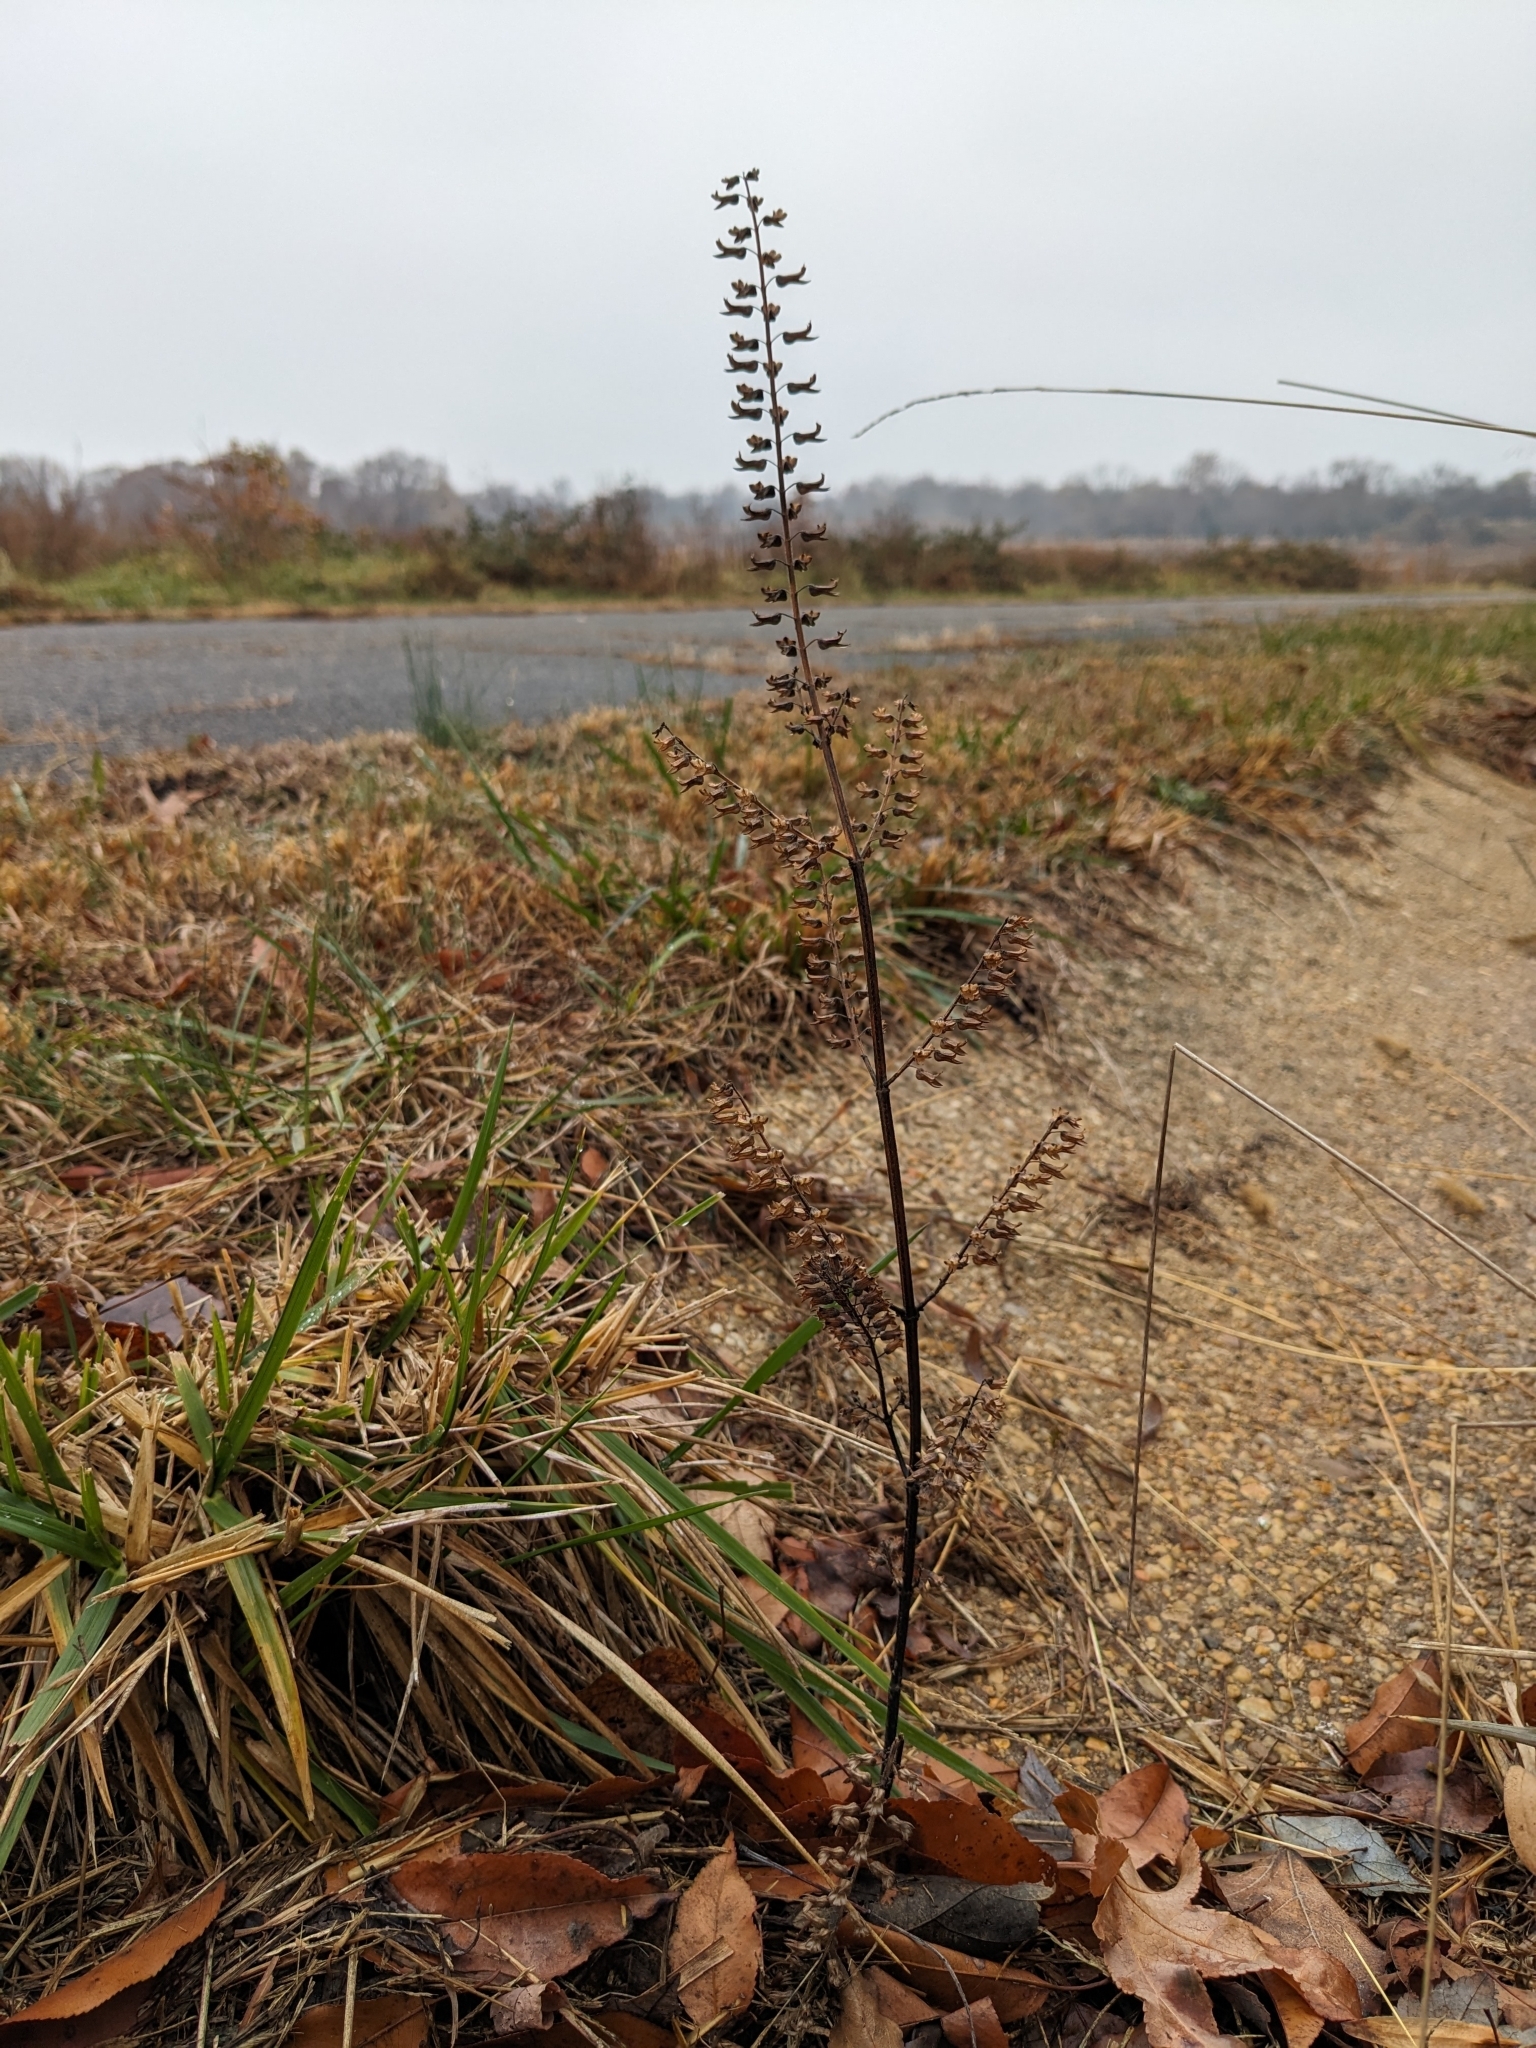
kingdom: Plantae
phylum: Tracheophyta
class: Magnoliopsida
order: Lamiales
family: Lamiaceae
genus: Perilla
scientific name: Perilla frutescens
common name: Perilla
